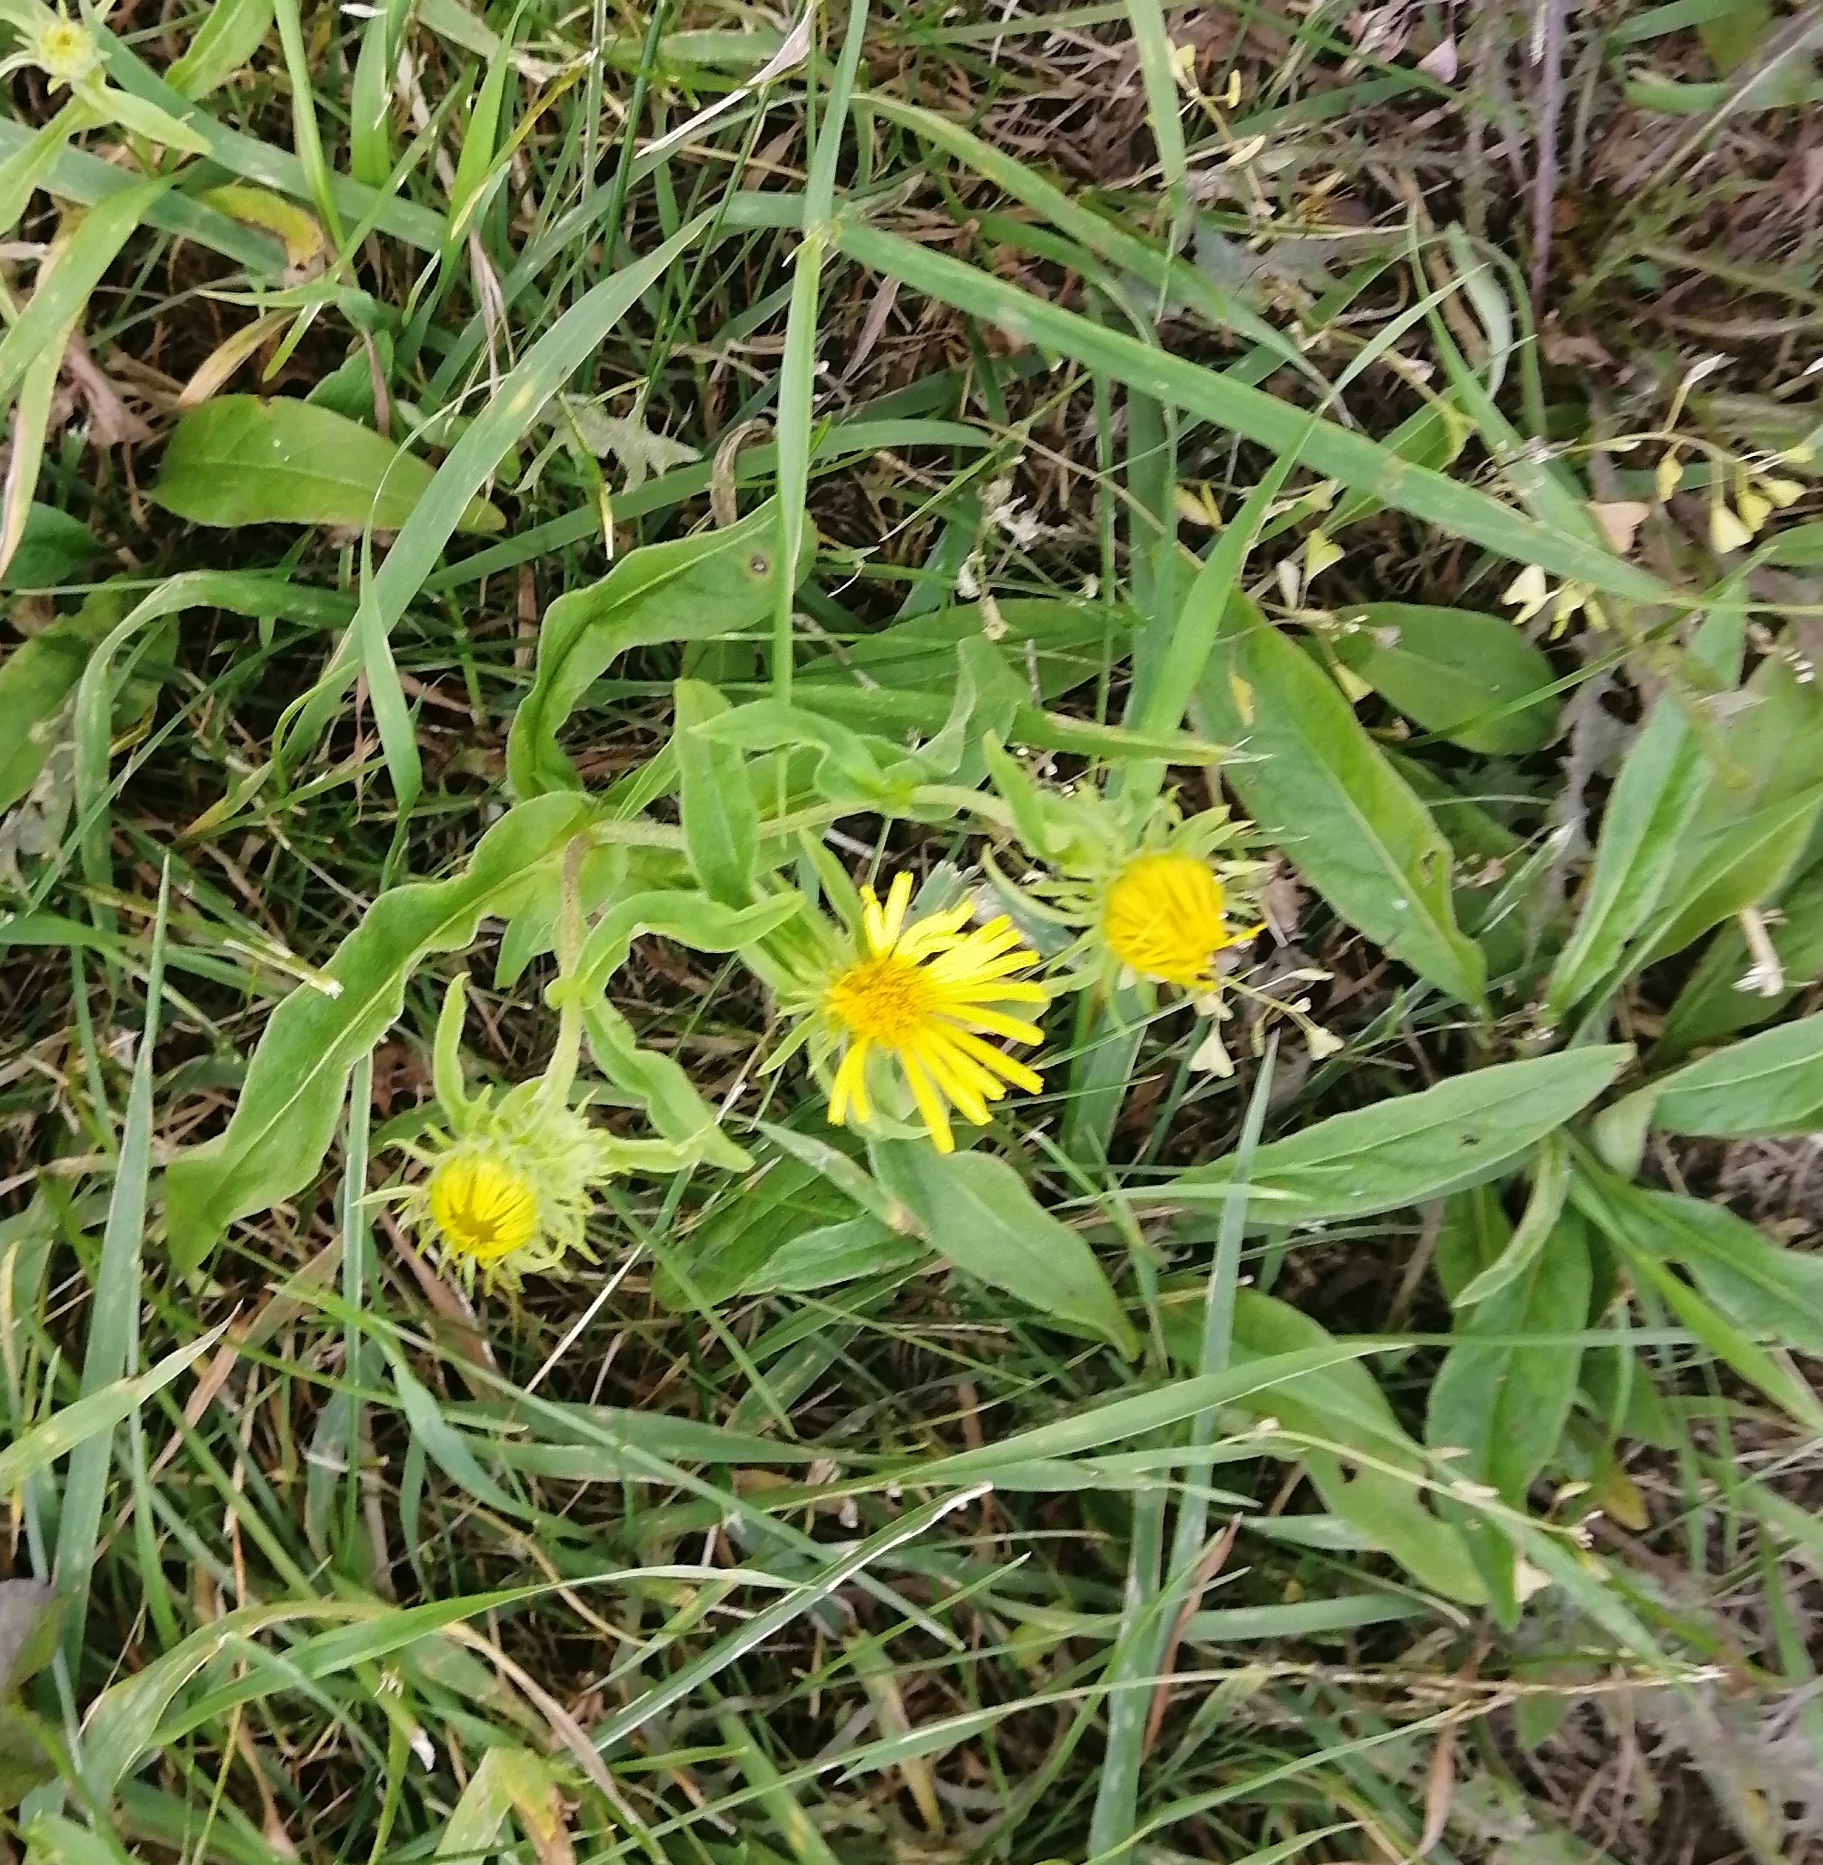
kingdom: Plantae
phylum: Tracheophyta
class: Magnoliopsida
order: Asterales
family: Asteraceae
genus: Pentanema
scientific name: Pentanema britannicum
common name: British elecampane
